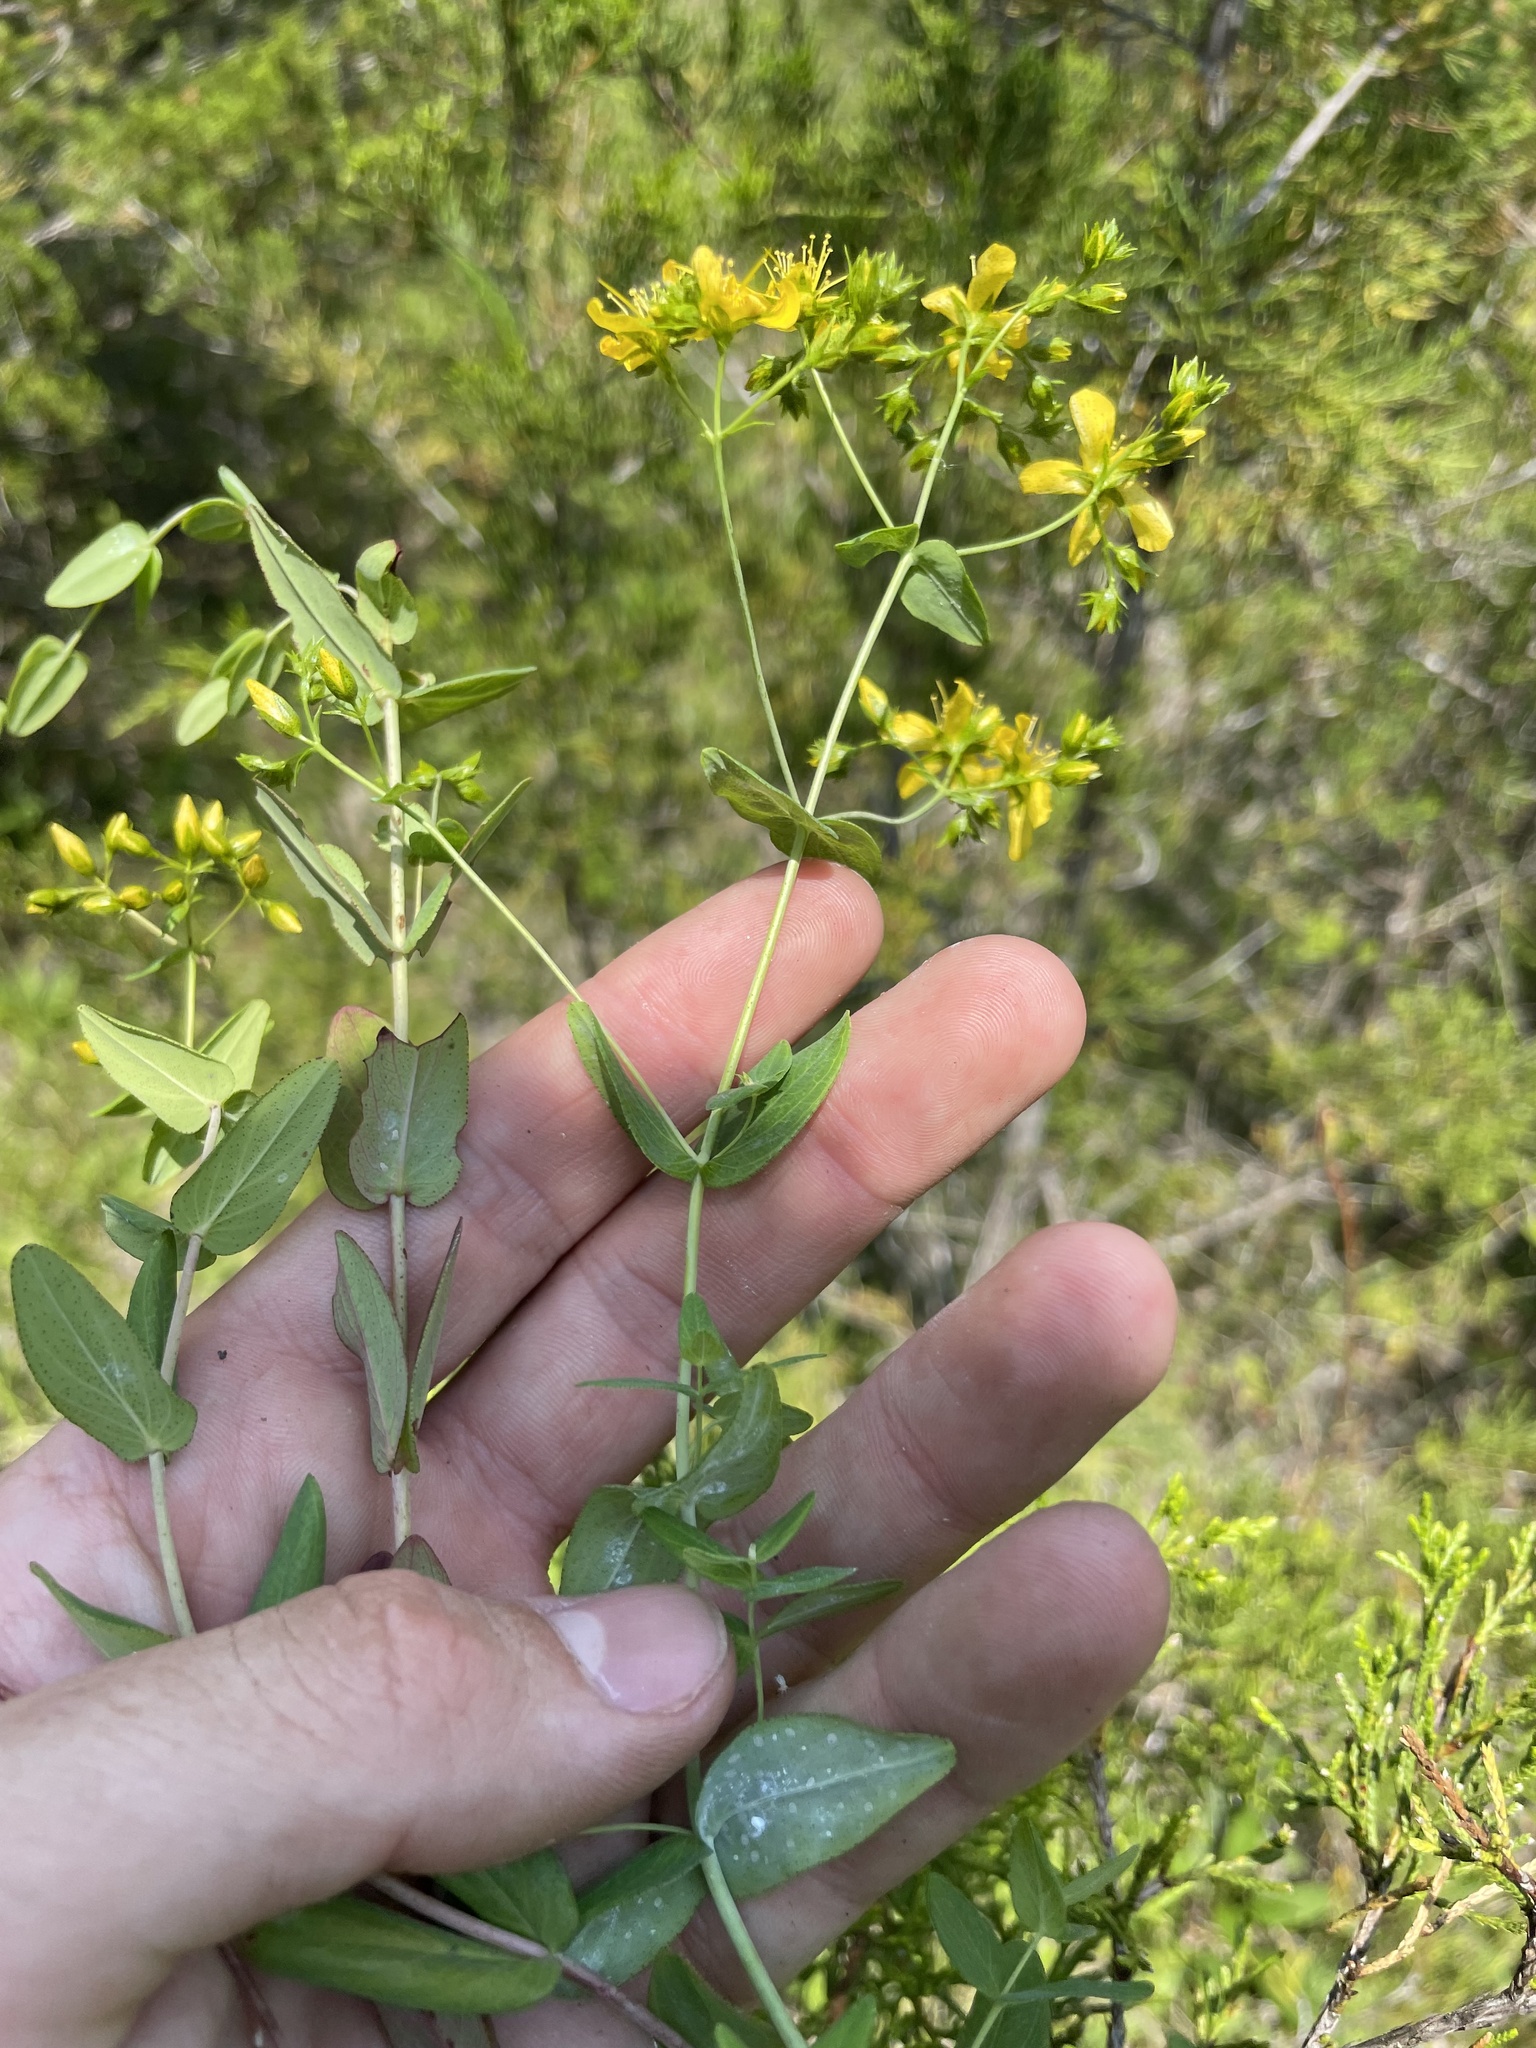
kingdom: Plantae
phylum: Tracheophyta
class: Magnoliopsida
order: Malpighiales
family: Hypericaceae
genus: Hypericum
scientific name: Hypericum pseudomaculatum
